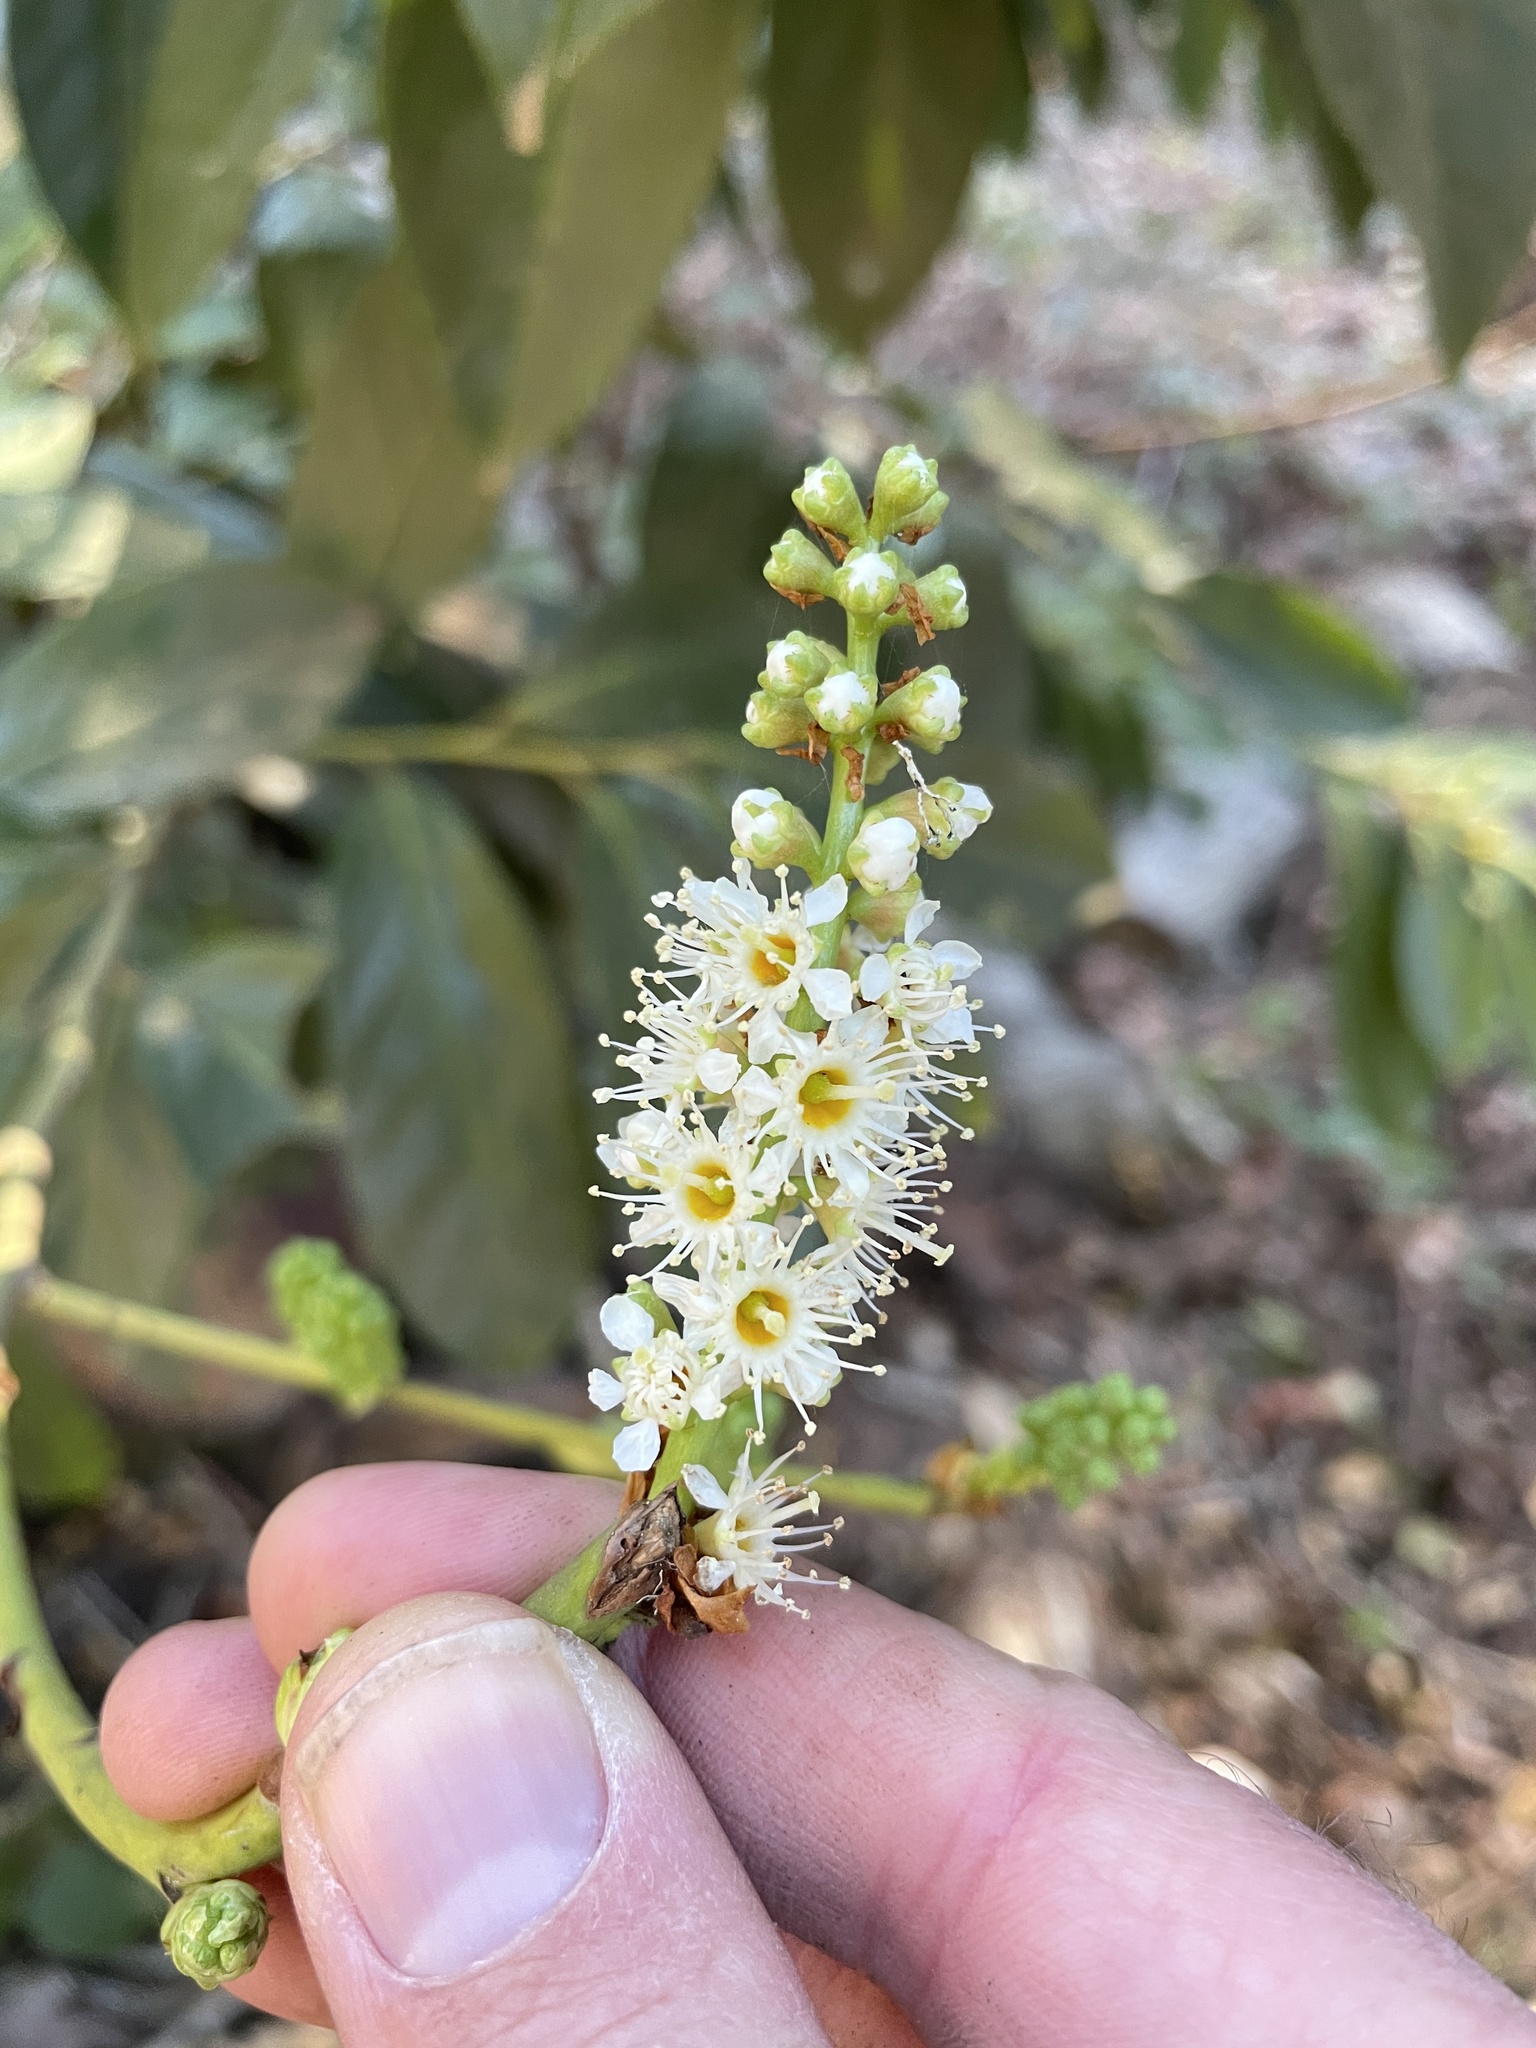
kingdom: Plantae
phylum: Tracheophyta
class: Magnoliopsida
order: Rosales
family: Rosaceae
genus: Prunus
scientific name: Prunus laurocerasus
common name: Cherry laurel
